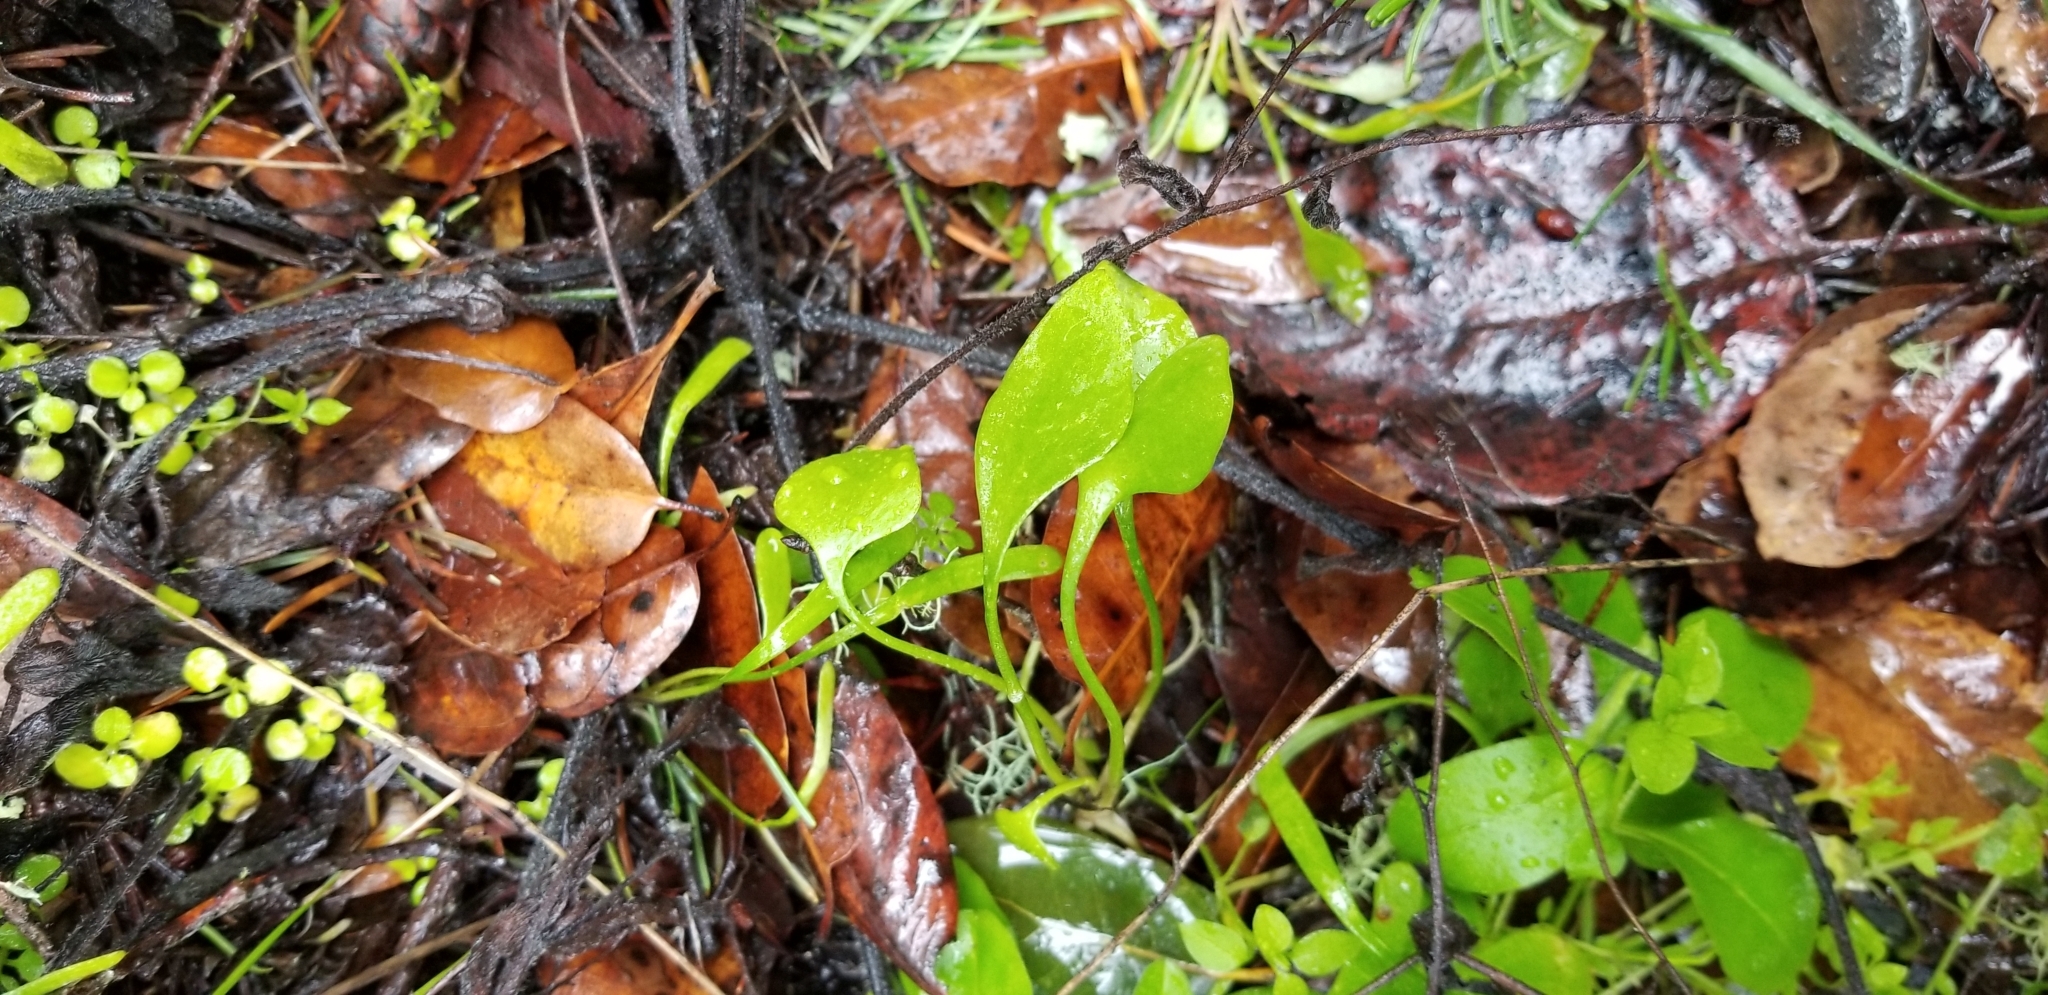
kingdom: Plantae
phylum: Tracheophyta
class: Magnoliopsida
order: Caryophyllales
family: Montiaceae
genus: Claytonia
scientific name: Claytonia perfoliata
